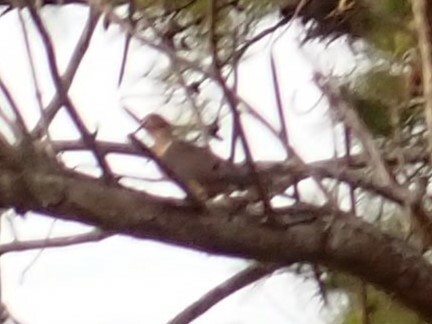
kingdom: Animalia
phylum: Chordata
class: Aves
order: Columbiformes
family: Columbidae
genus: Zenaida
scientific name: Zenaida macroura
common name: Mourning dove
